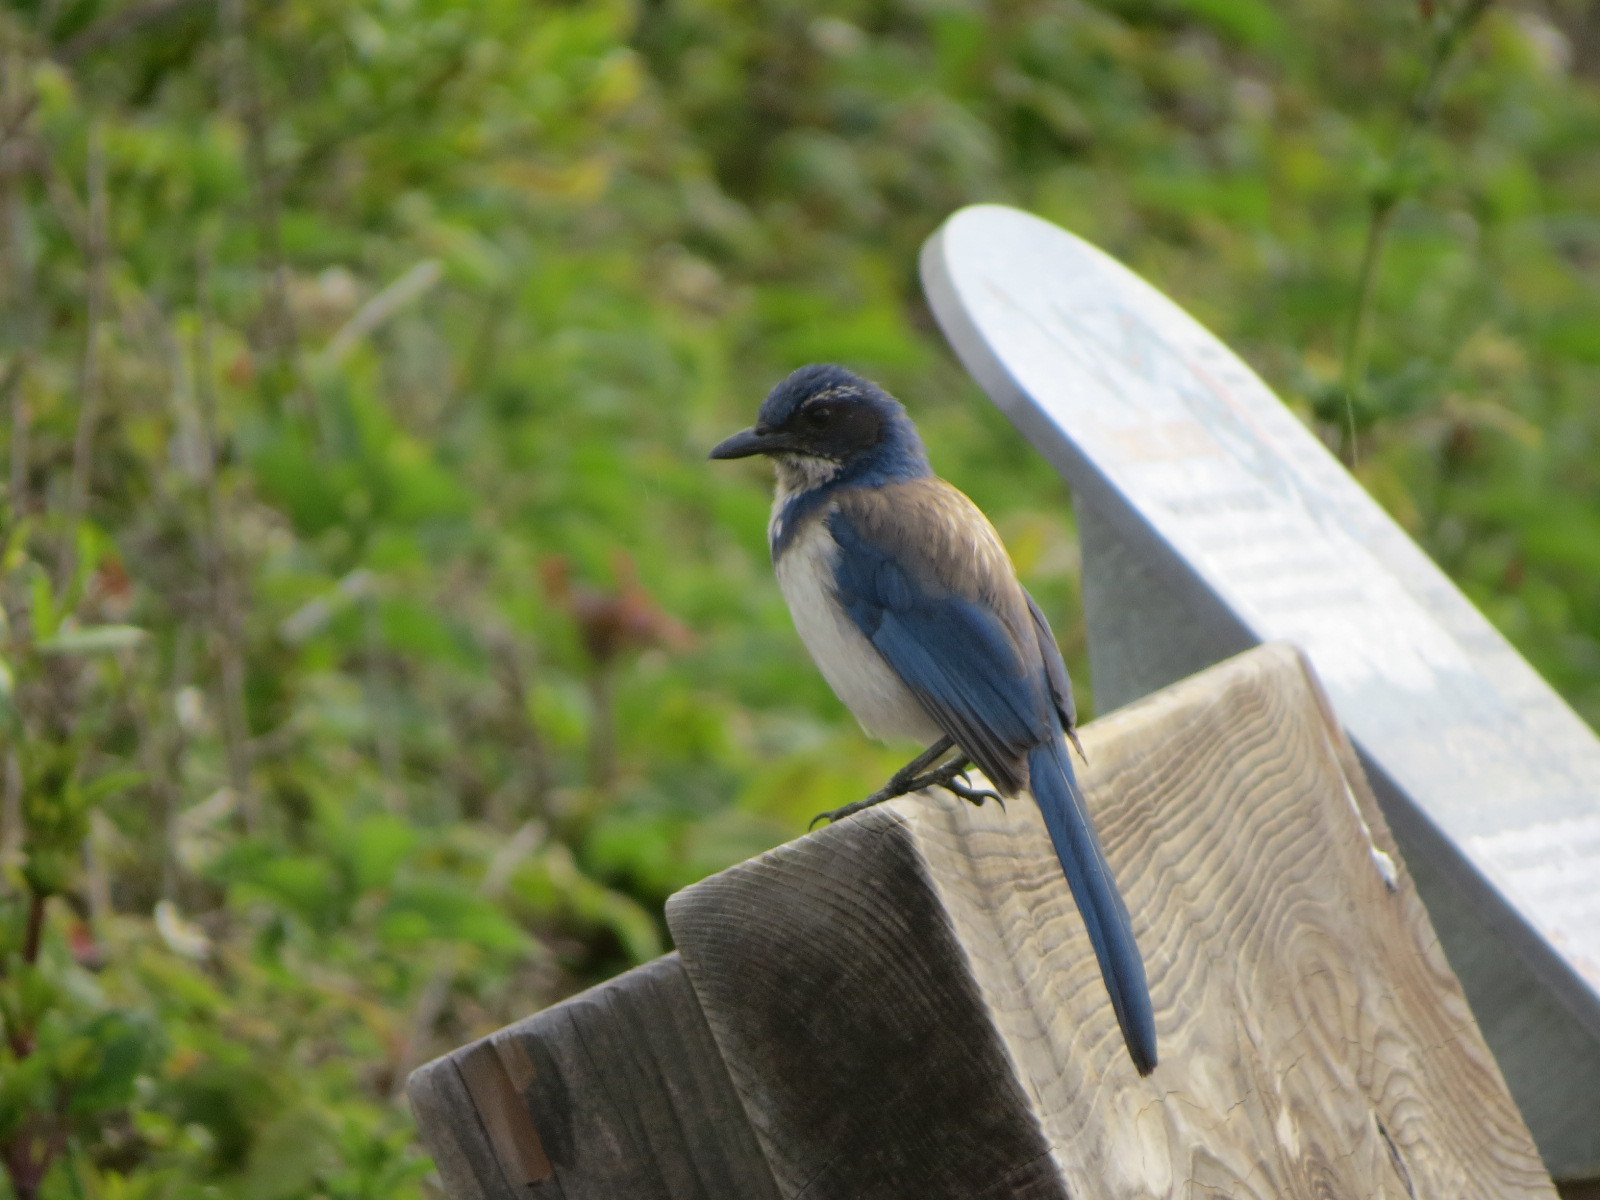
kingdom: Animalia
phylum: Chordata
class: Aves
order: Passeriformes
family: Corvidae
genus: Aphelocoma
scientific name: Aphelocoma californica
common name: California scrub-jay
